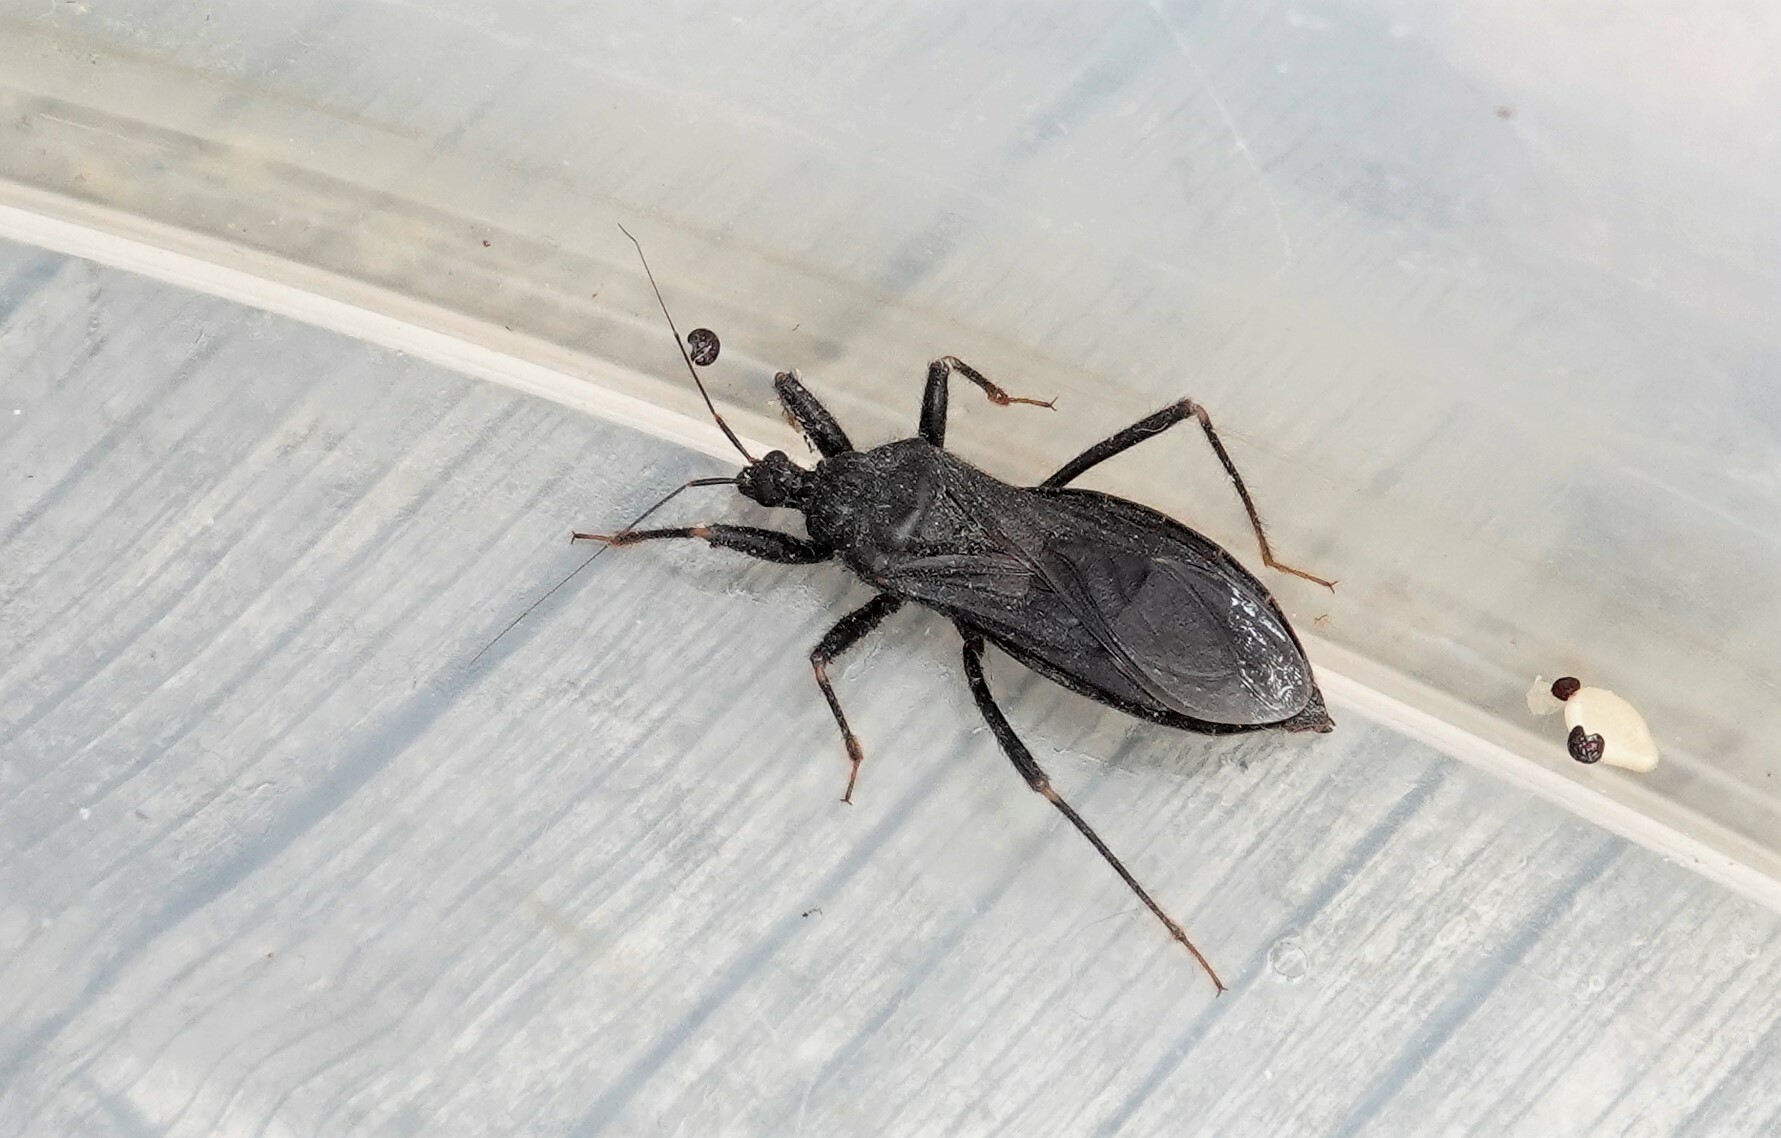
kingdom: Animalia
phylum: Arthropoda
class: Insecta
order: Hemiptera
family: Reduviidae
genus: Reduvius
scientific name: Reduvius personatus
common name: Masked hunter
